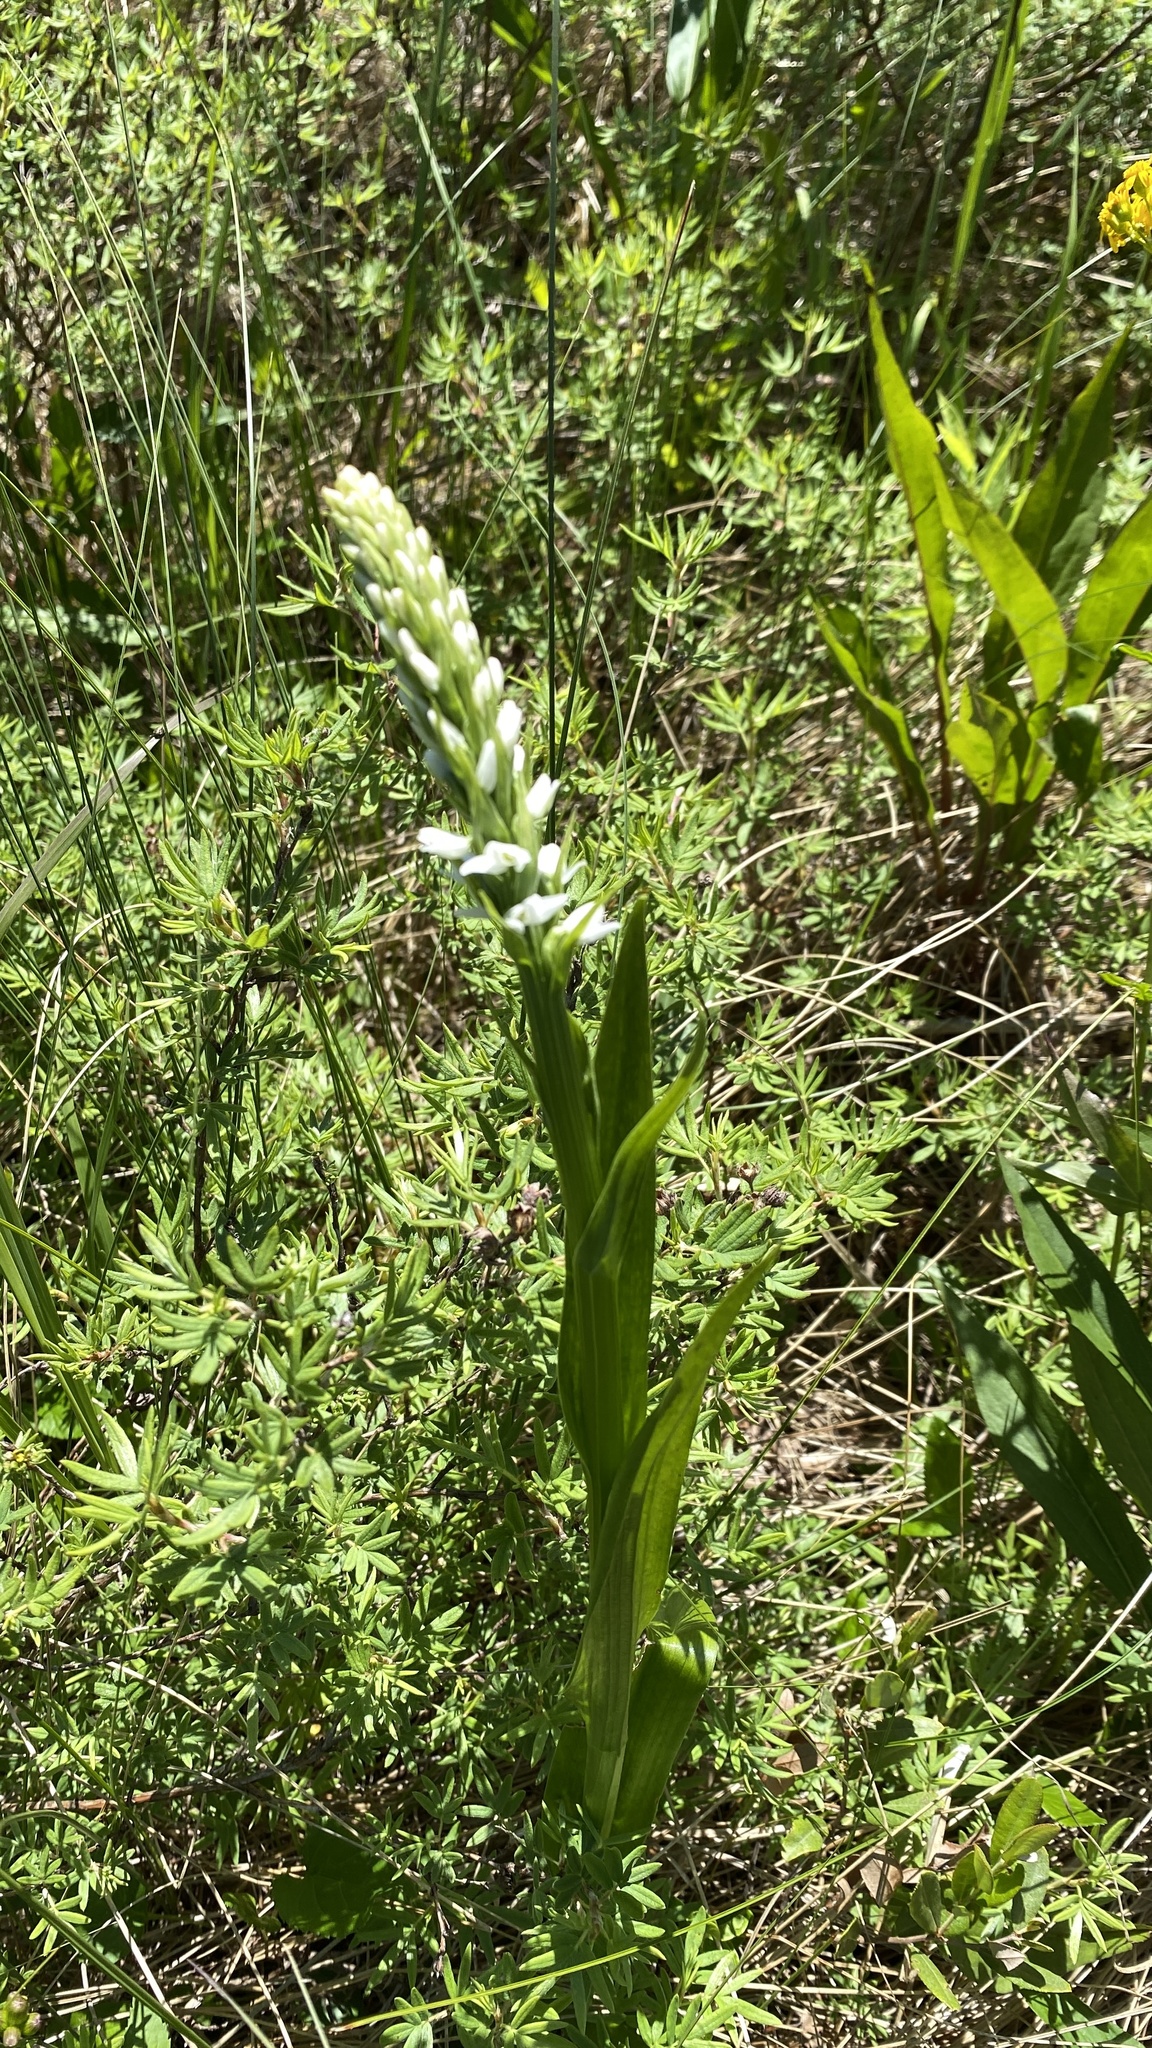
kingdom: Plantae
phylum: Tracheophyta
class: Liliopsida
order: Asparagales
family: Orchidaceae
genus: Platanthera
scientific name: Platanthera dilatata
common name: Bog candles
